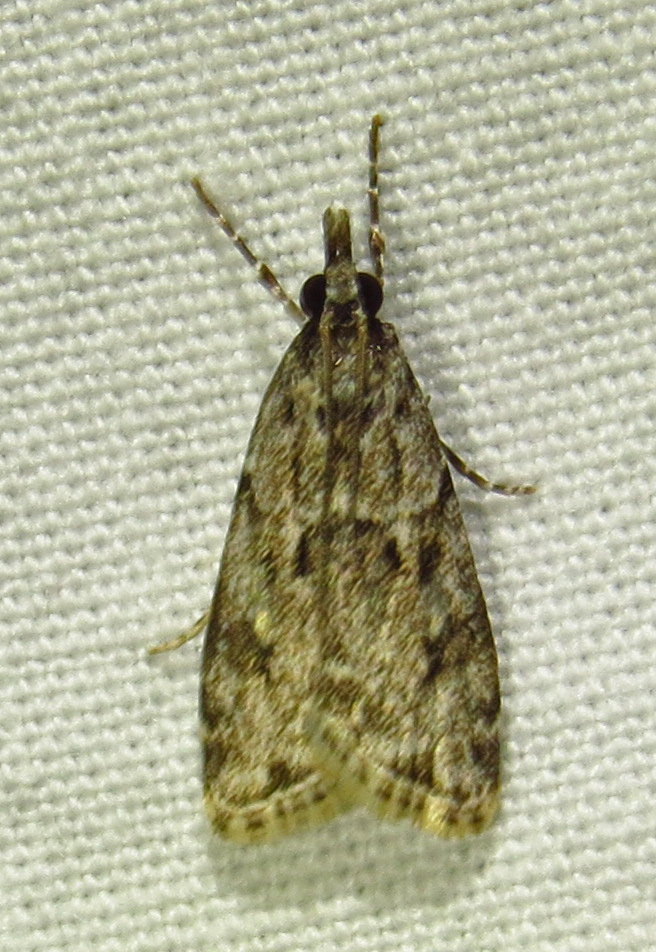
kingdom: Animalia
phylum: Arthropoda
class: Insecta
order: Lepidoptera
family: Crambidae
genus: Eudonia
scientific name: Eudonia heterosalis
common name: Mcdunnough's eudonia
